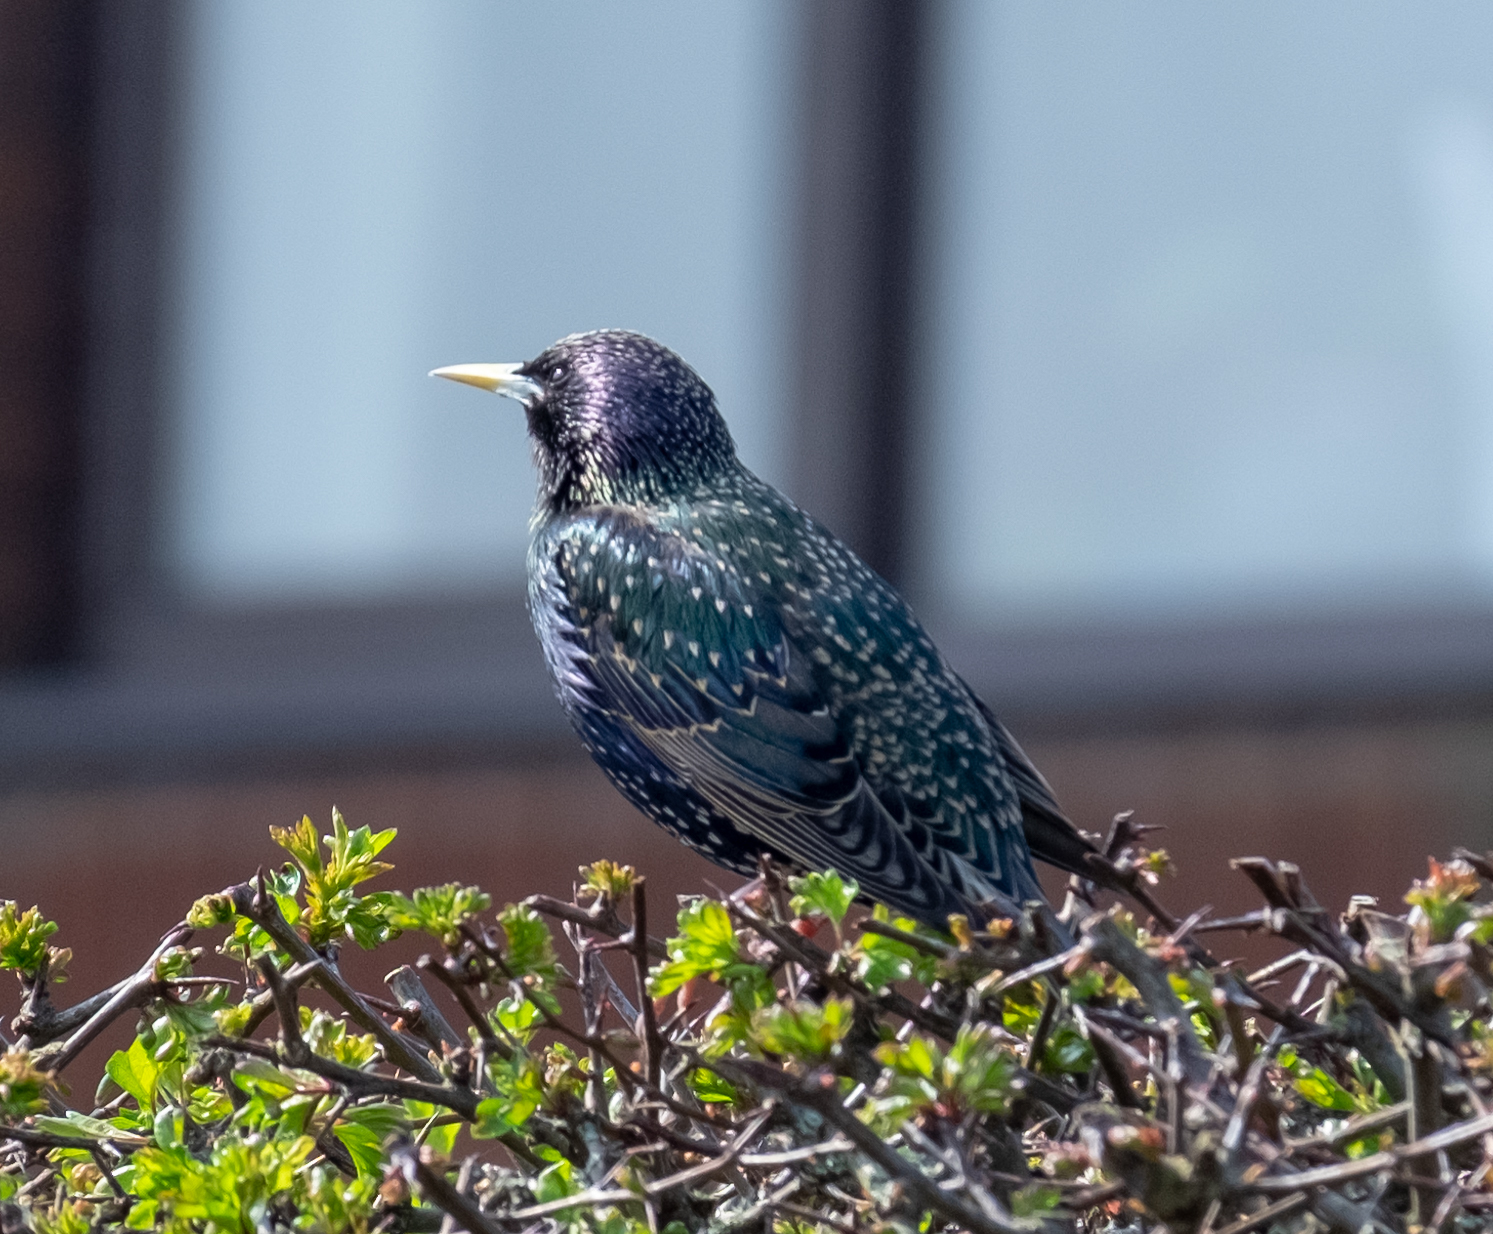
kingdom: Animalia
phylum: Chordata
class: Aves
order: Passeriformes
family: Sturnidae
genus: Sturnus
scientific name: Sturnus vulgaris
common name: Common starling
